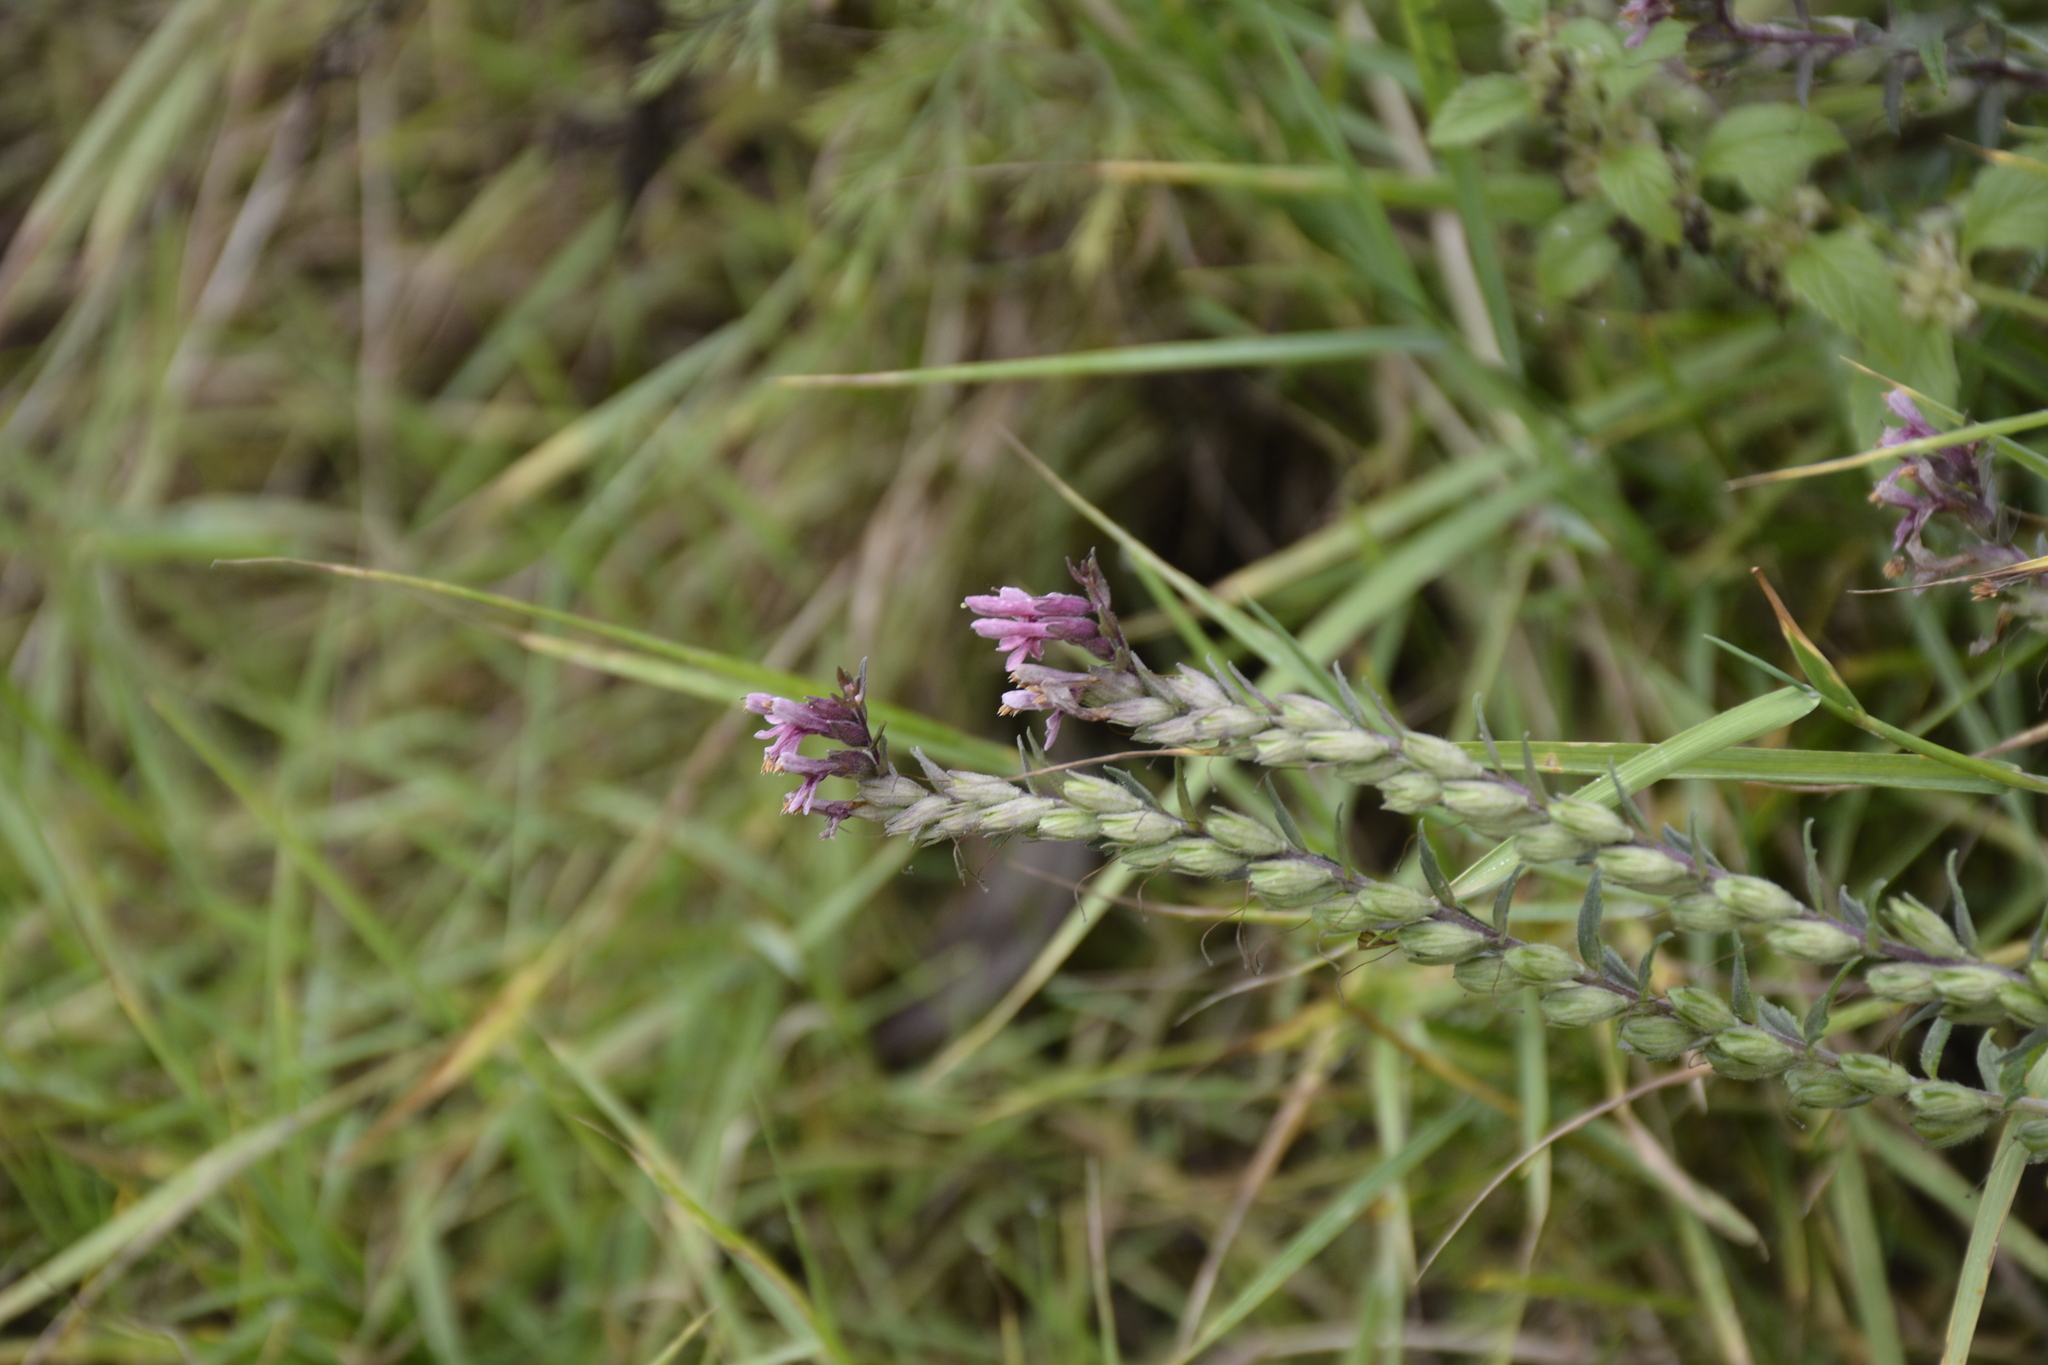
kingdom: Plantae
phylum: Tracheophyta
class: Magnoliopsida
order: Lamiales
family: Orobanchaceae
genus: Odontites
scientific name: Odontites vulgaris
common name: Broomrape
